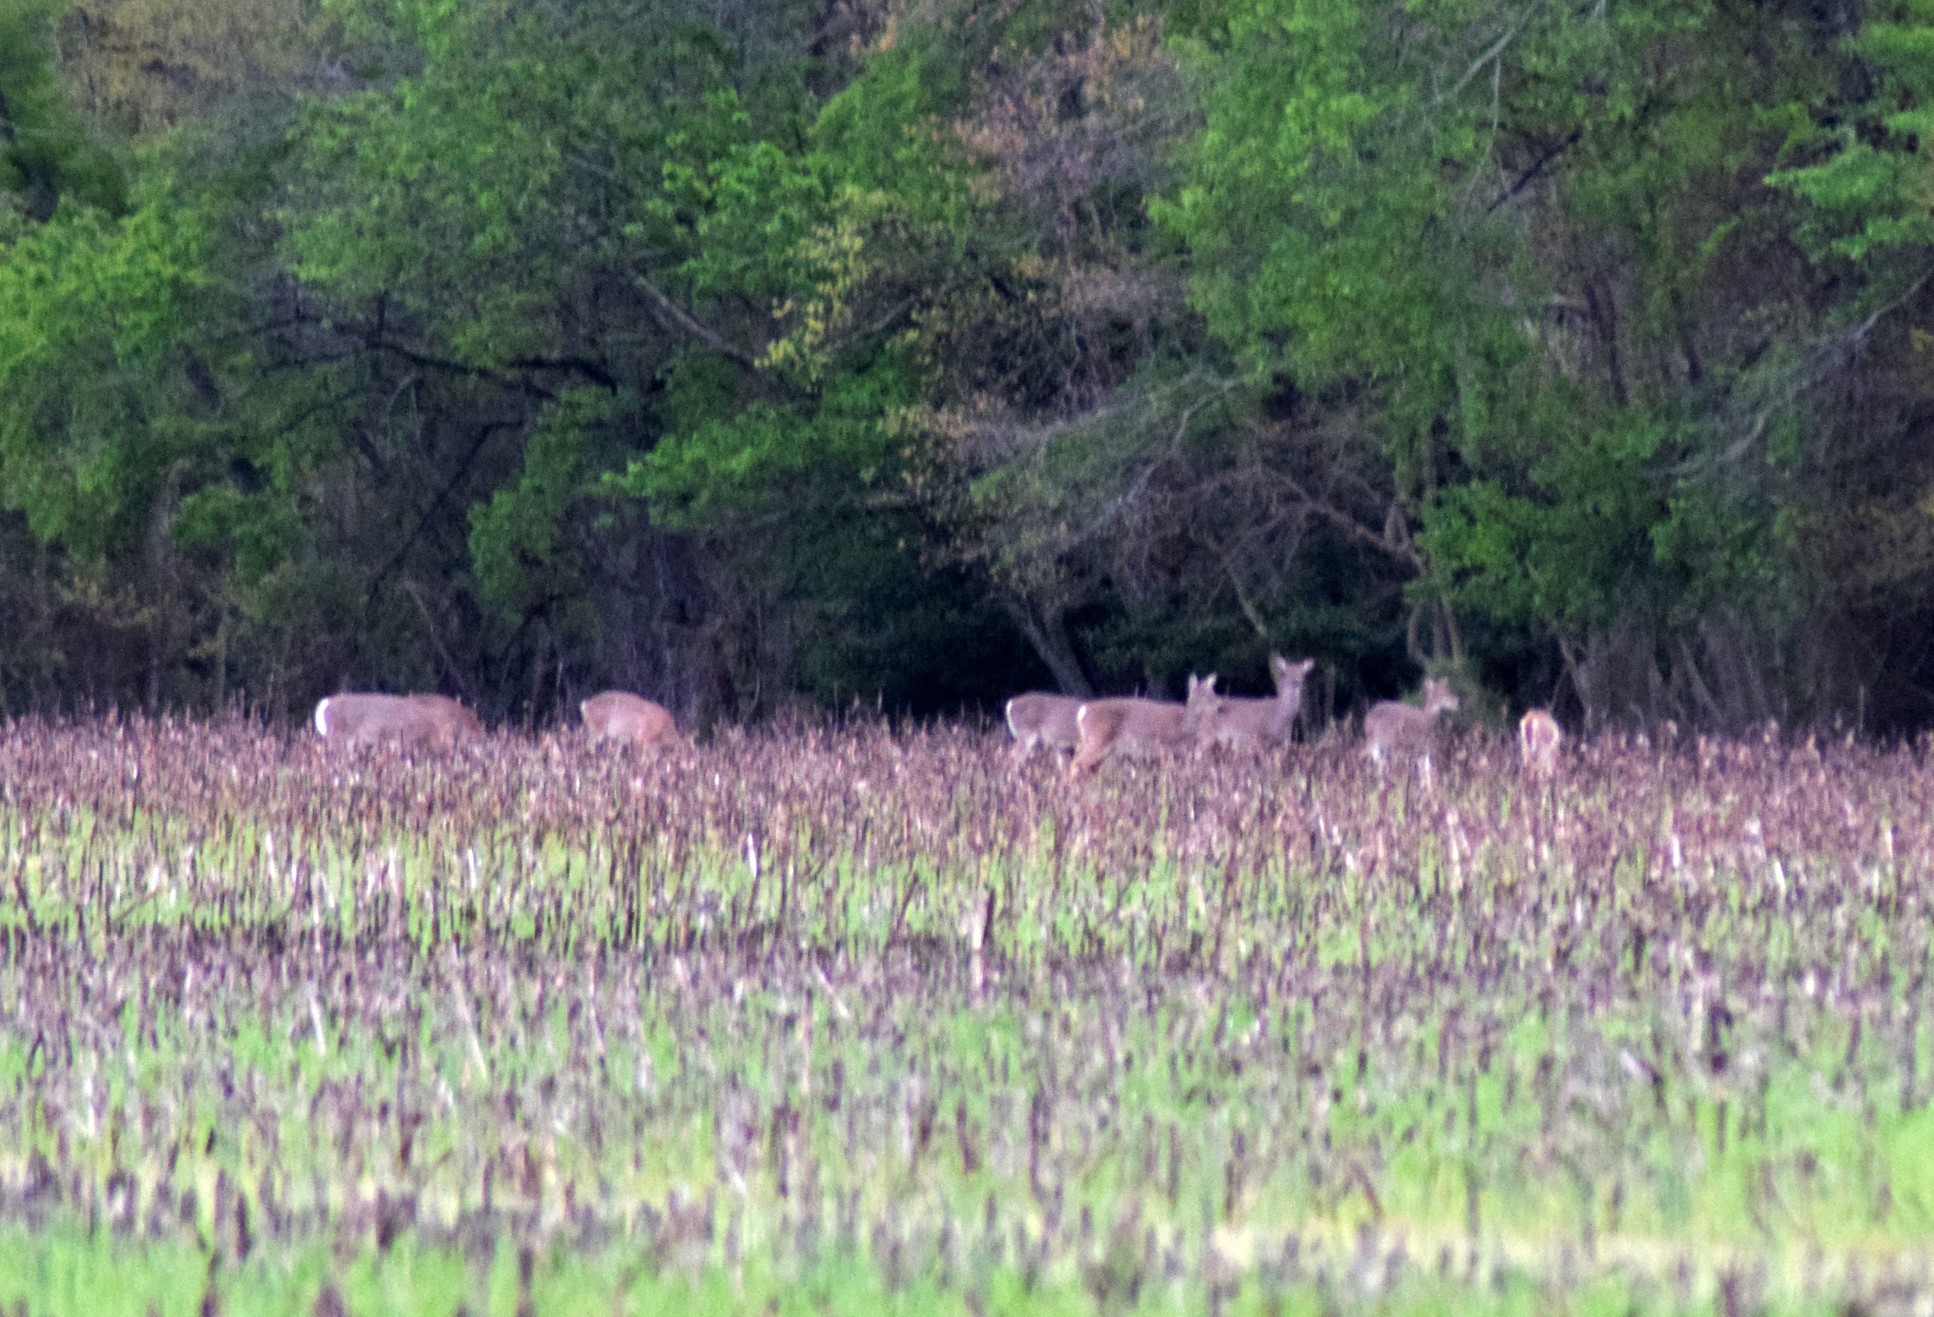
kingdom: Animalia
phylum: Chordata
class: Mammalia
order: Artiodactyla
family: Cervidae
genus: Odocoileus
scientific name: Odocoileus virginianus
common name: White-tailed deer
